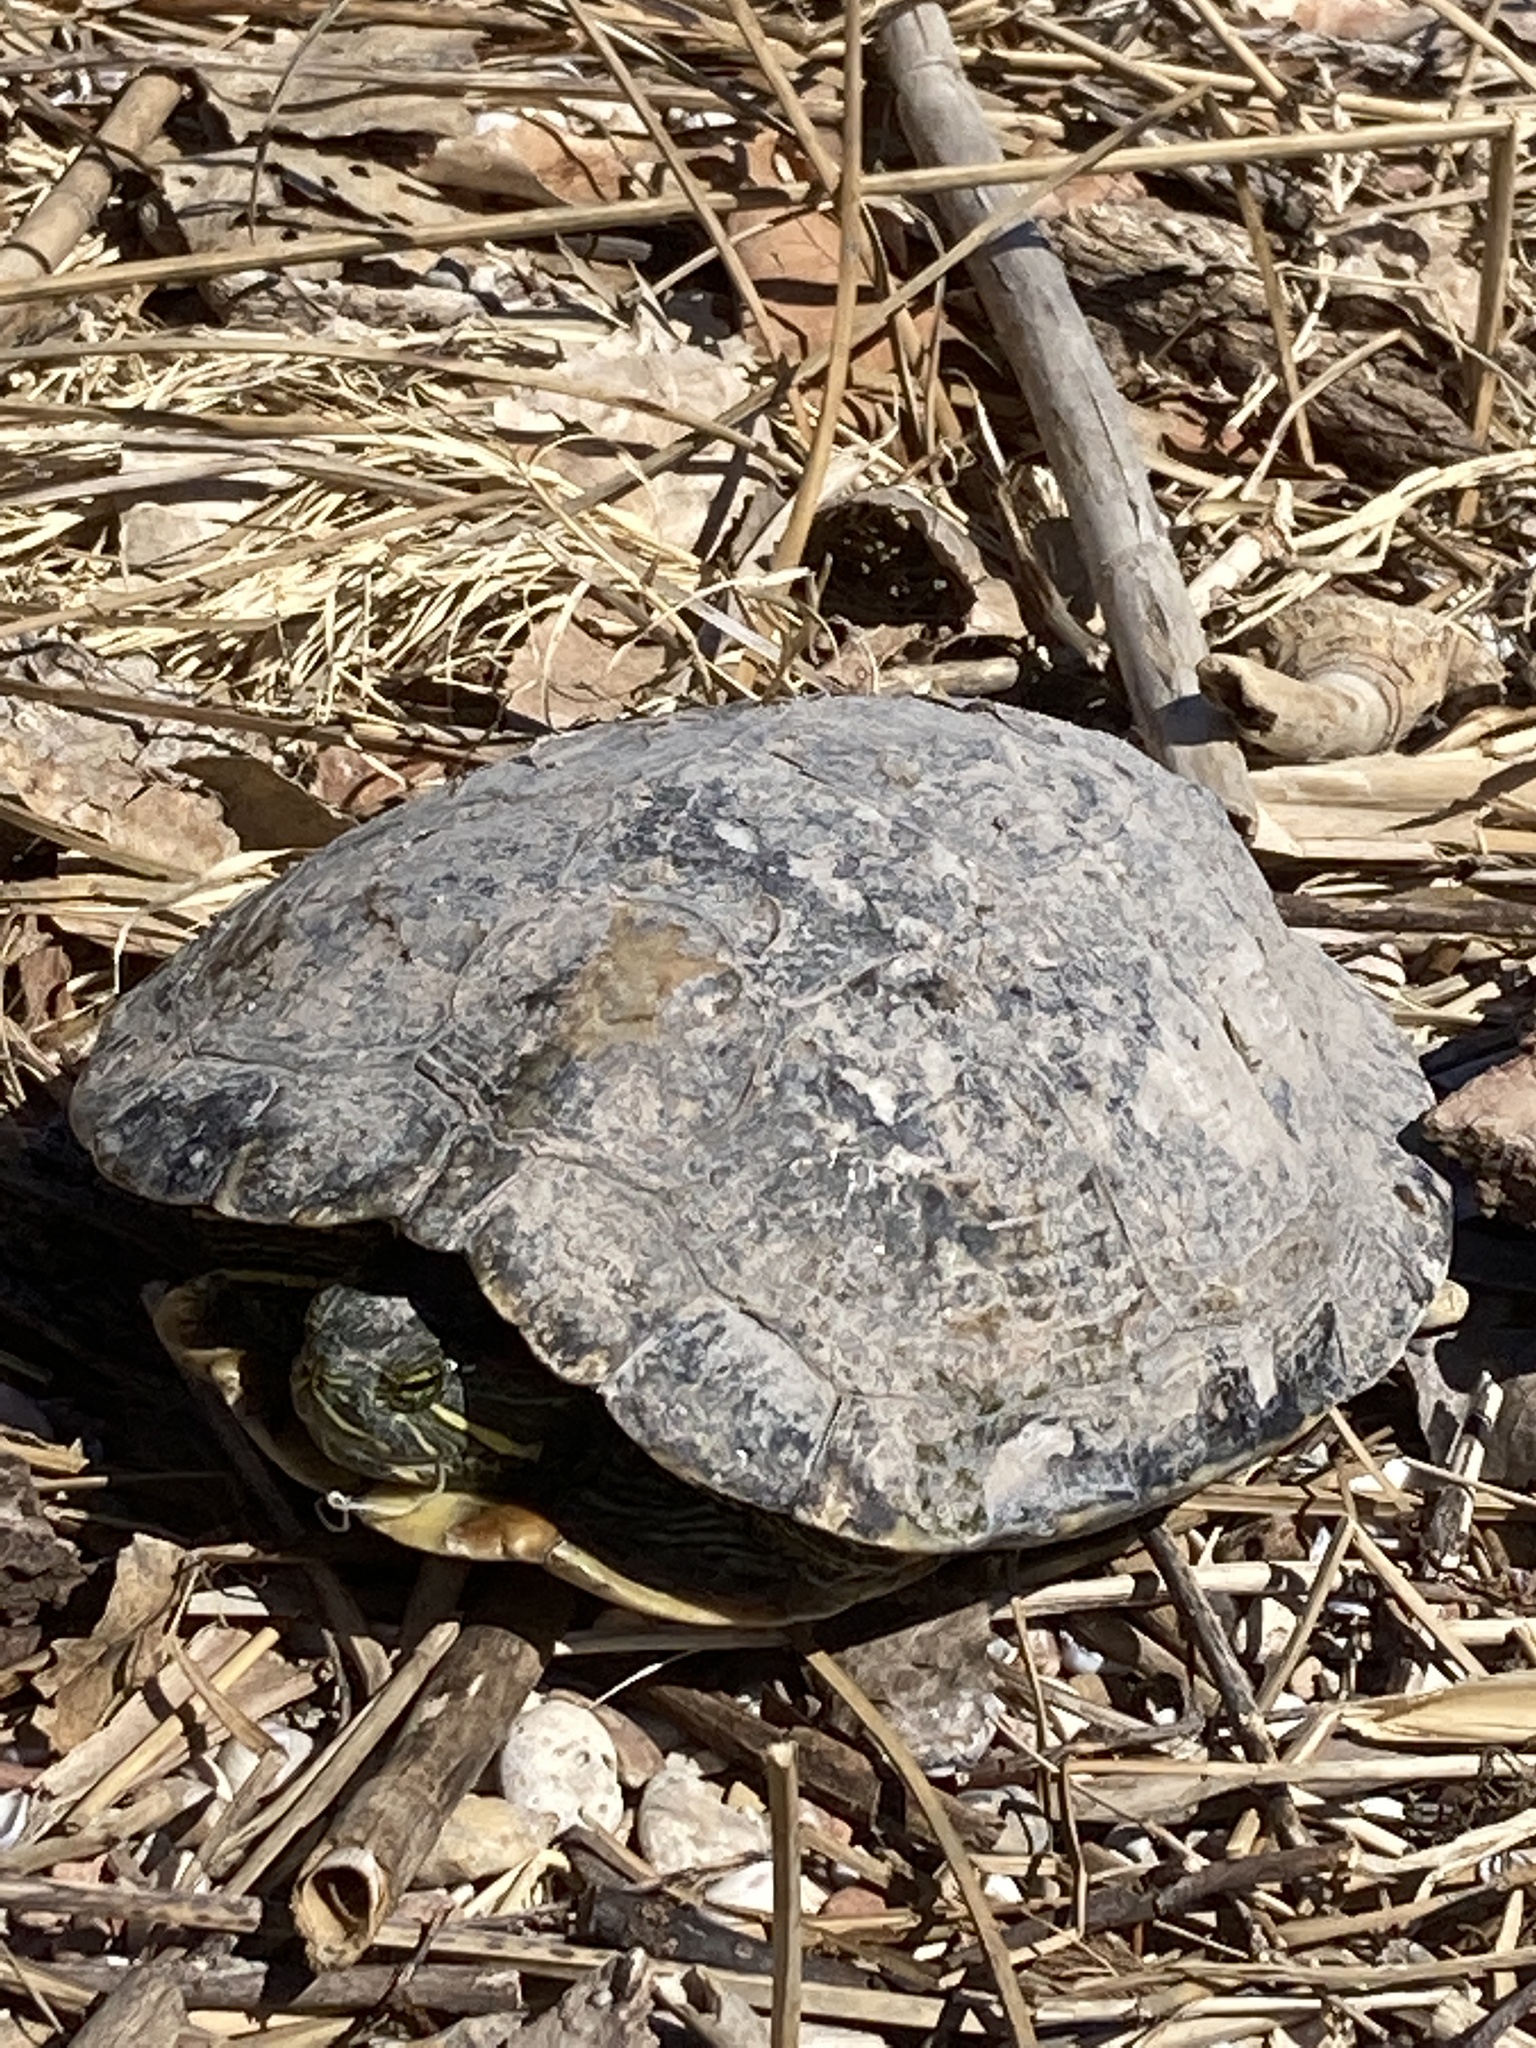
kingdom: Animalia
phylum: Chordata
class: Testudines
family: Emydidae
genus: Trachemys
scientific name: Trachemys scripta
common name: Slider
